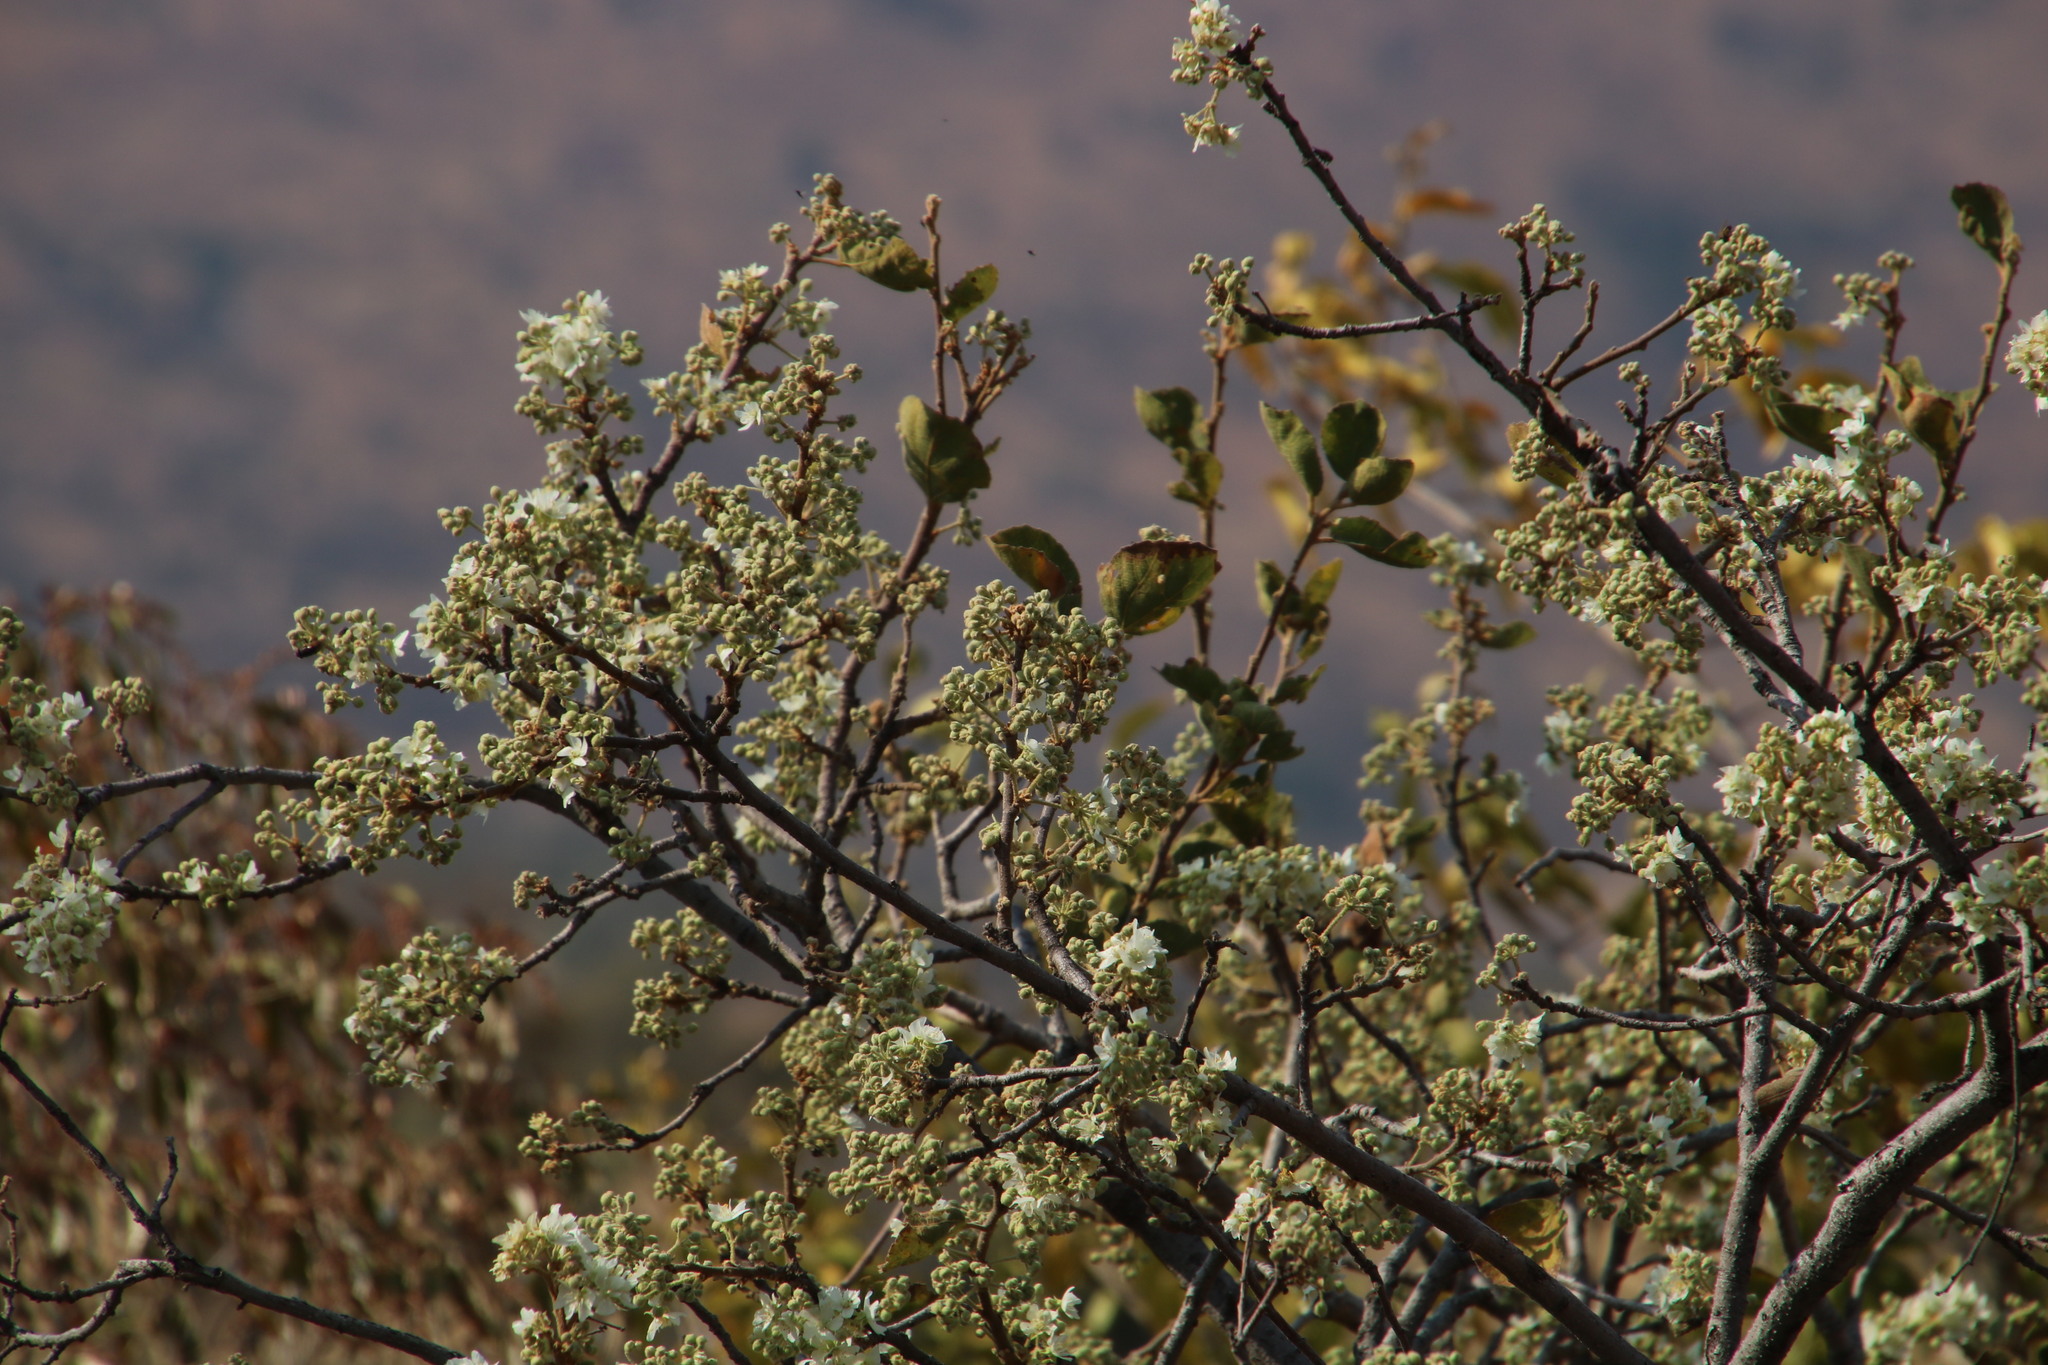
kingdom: Plantae
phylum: Tracheophyta
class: Magnoliopsida
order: Malvales
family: Malvaceae
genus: Dombeya
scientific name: Dombeya rotundifolia
